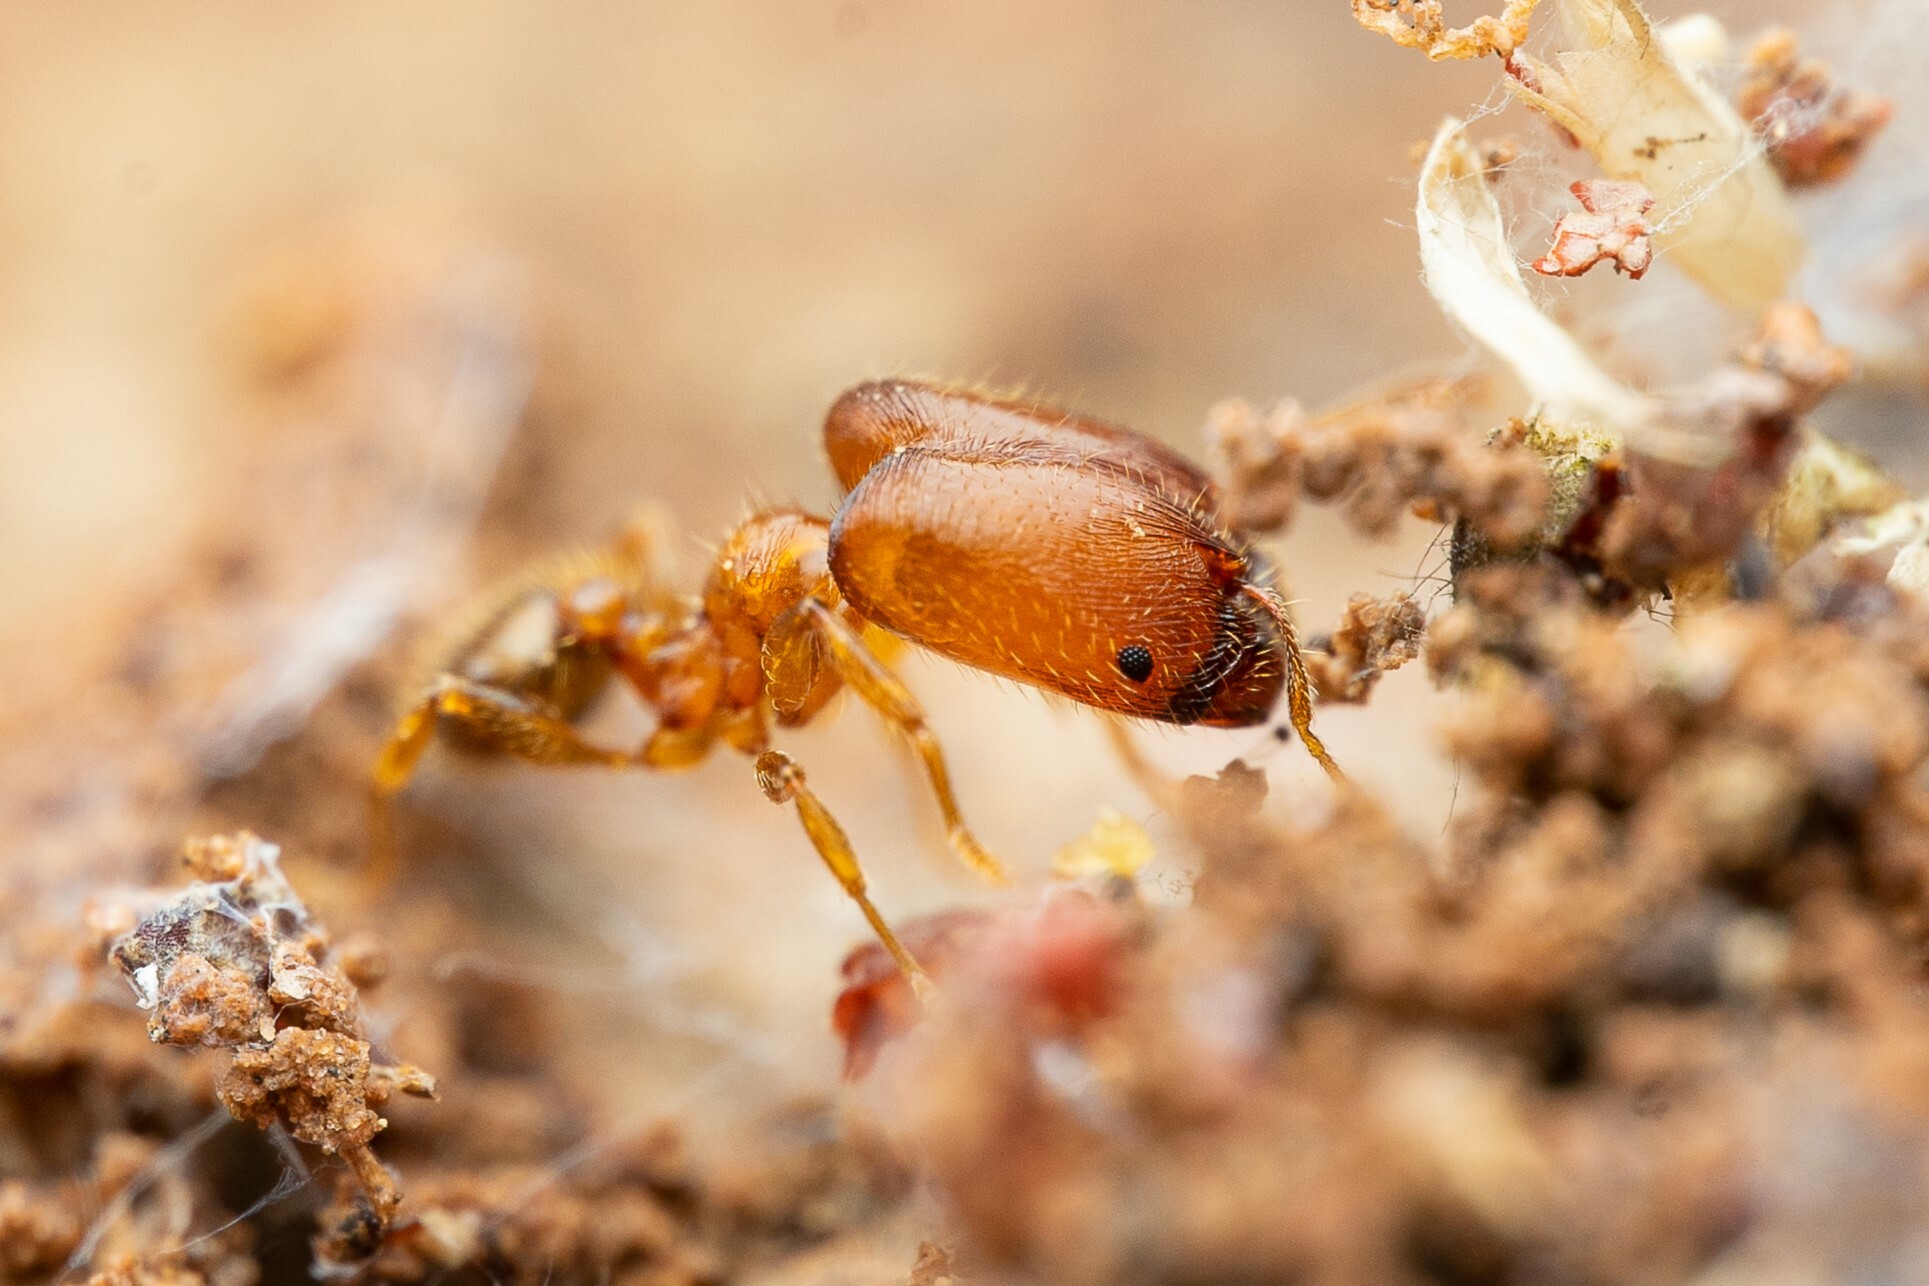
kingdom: Animalia
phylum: Arthropoda
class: Insecta
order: Hymenoptera
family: Formicidae
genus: Pheidole
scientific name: Pheidole
